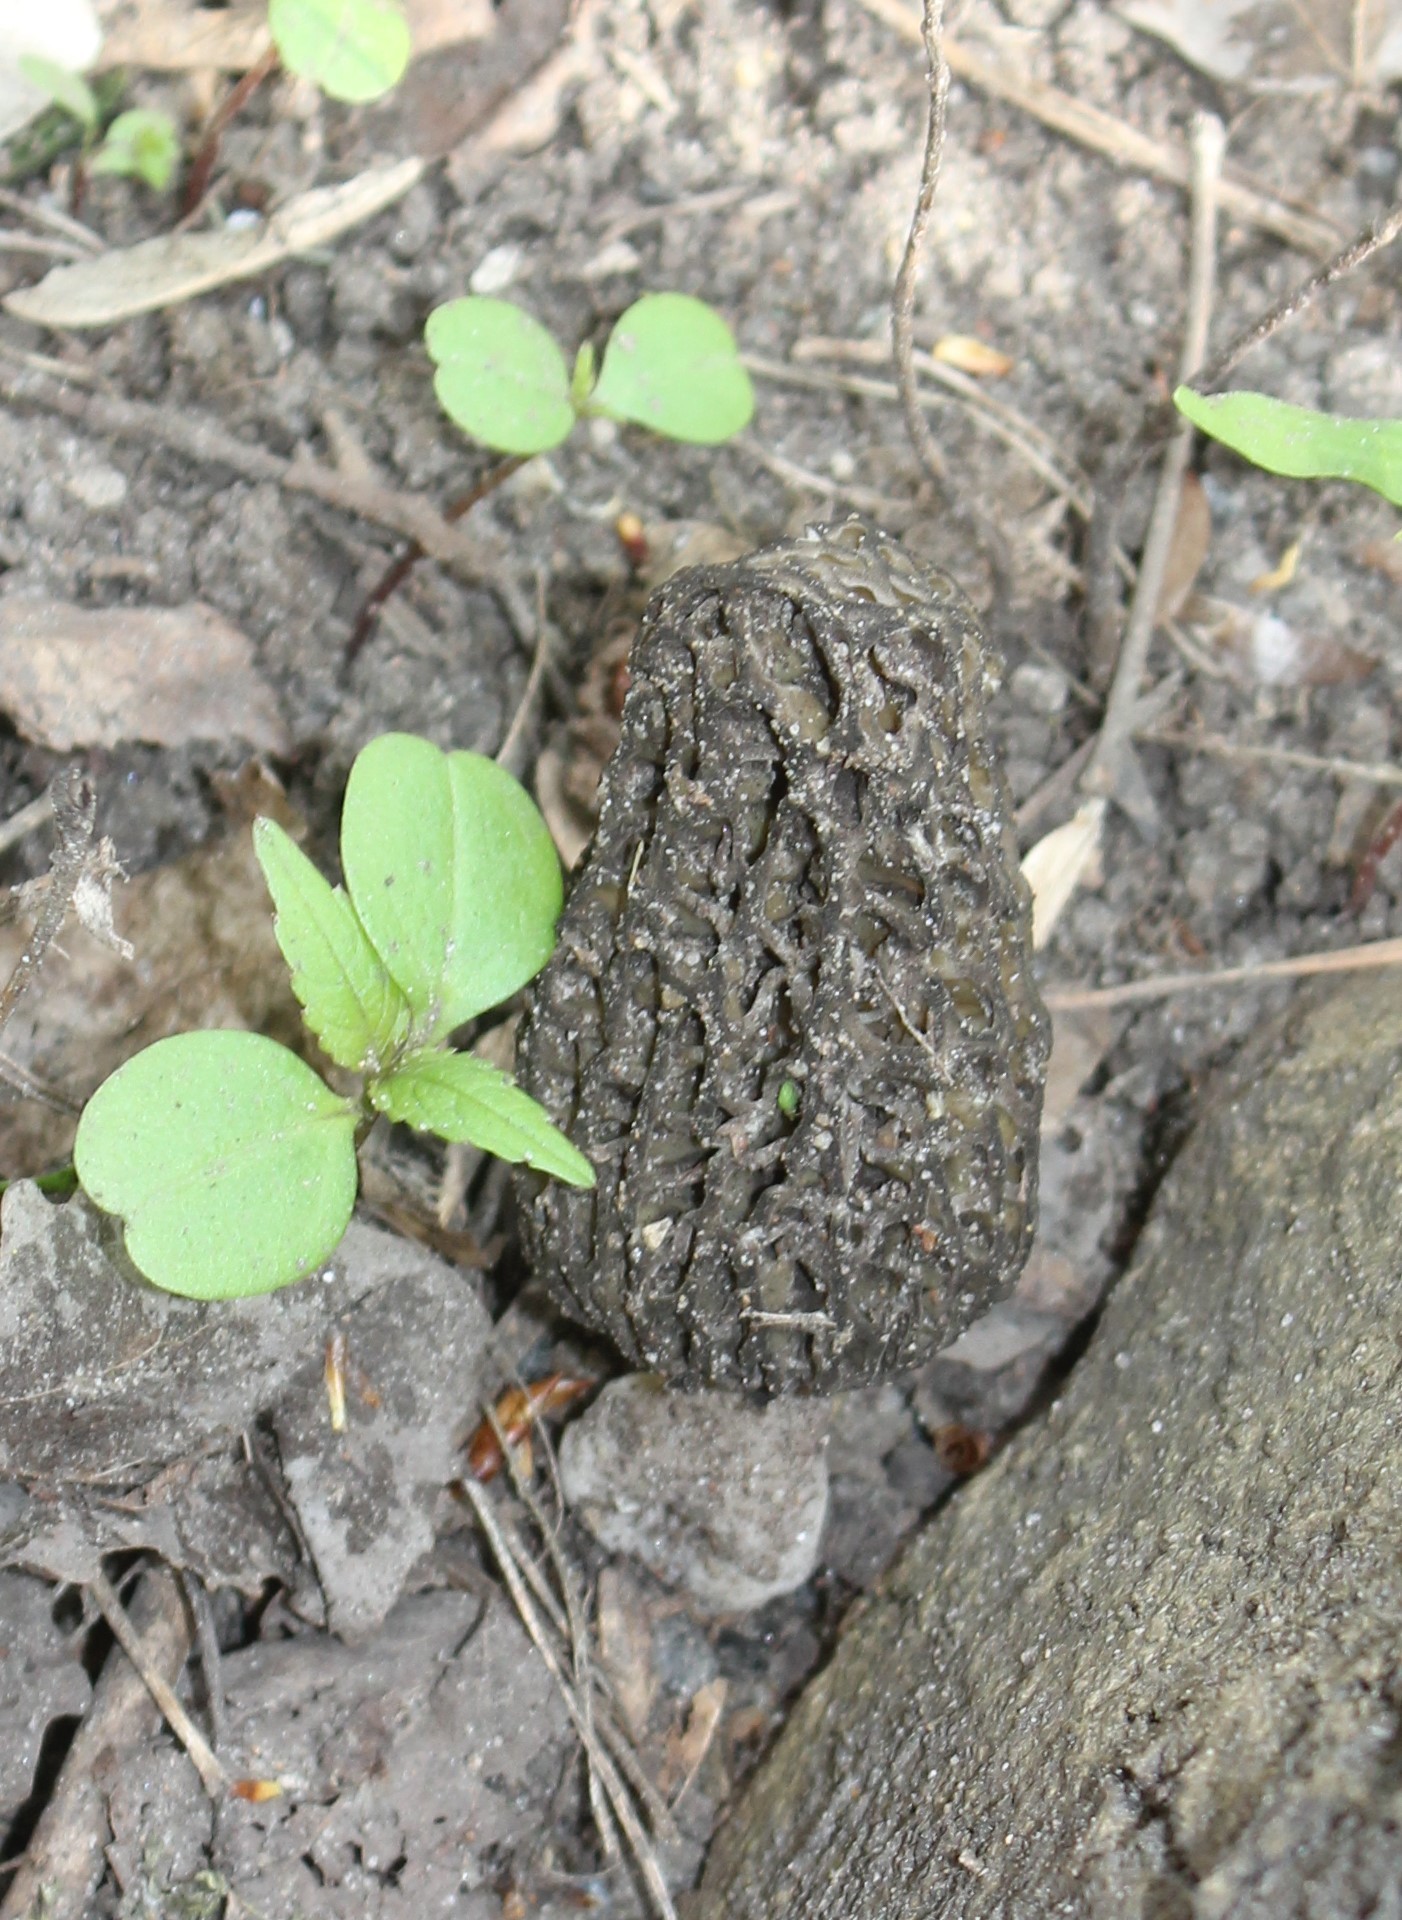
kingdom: Fungi
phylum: Ascomycota
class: Pezizomycetes
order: Pezizales
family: Morchellaceae
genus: Morchella
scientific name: Morchella
